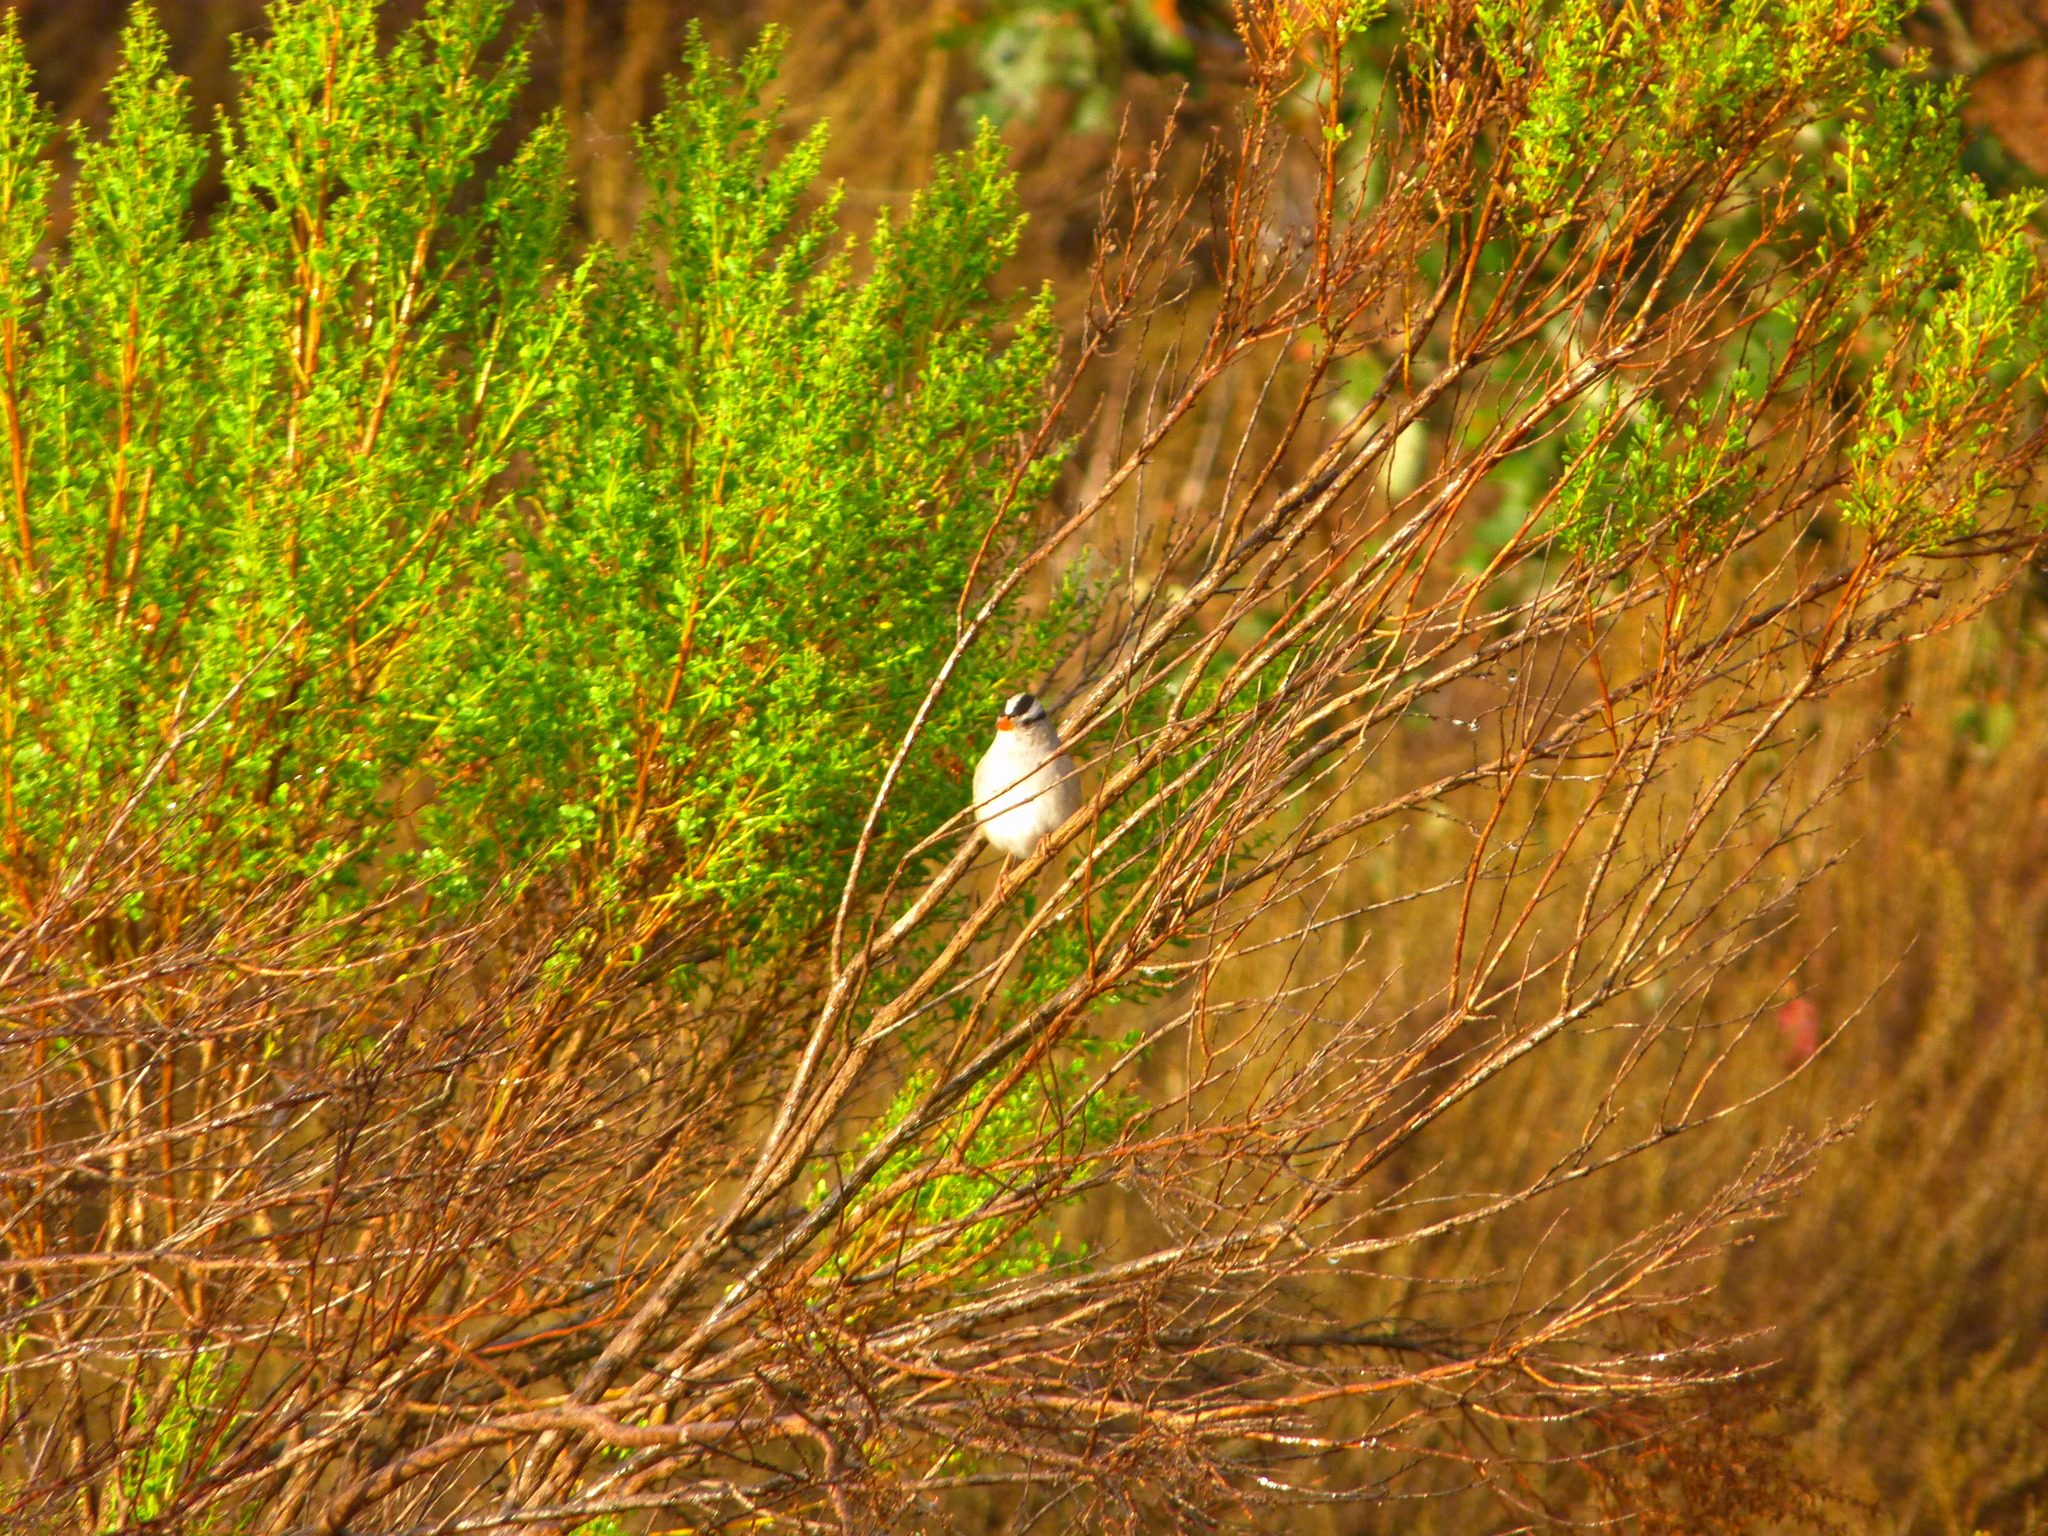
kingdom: Animalia
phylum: Chordata
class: Aves
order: Passeriformes
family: Passerellidae
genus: Zonotrichia
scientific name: Zonotrichia leucophrys
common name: White-crowned sparrow
